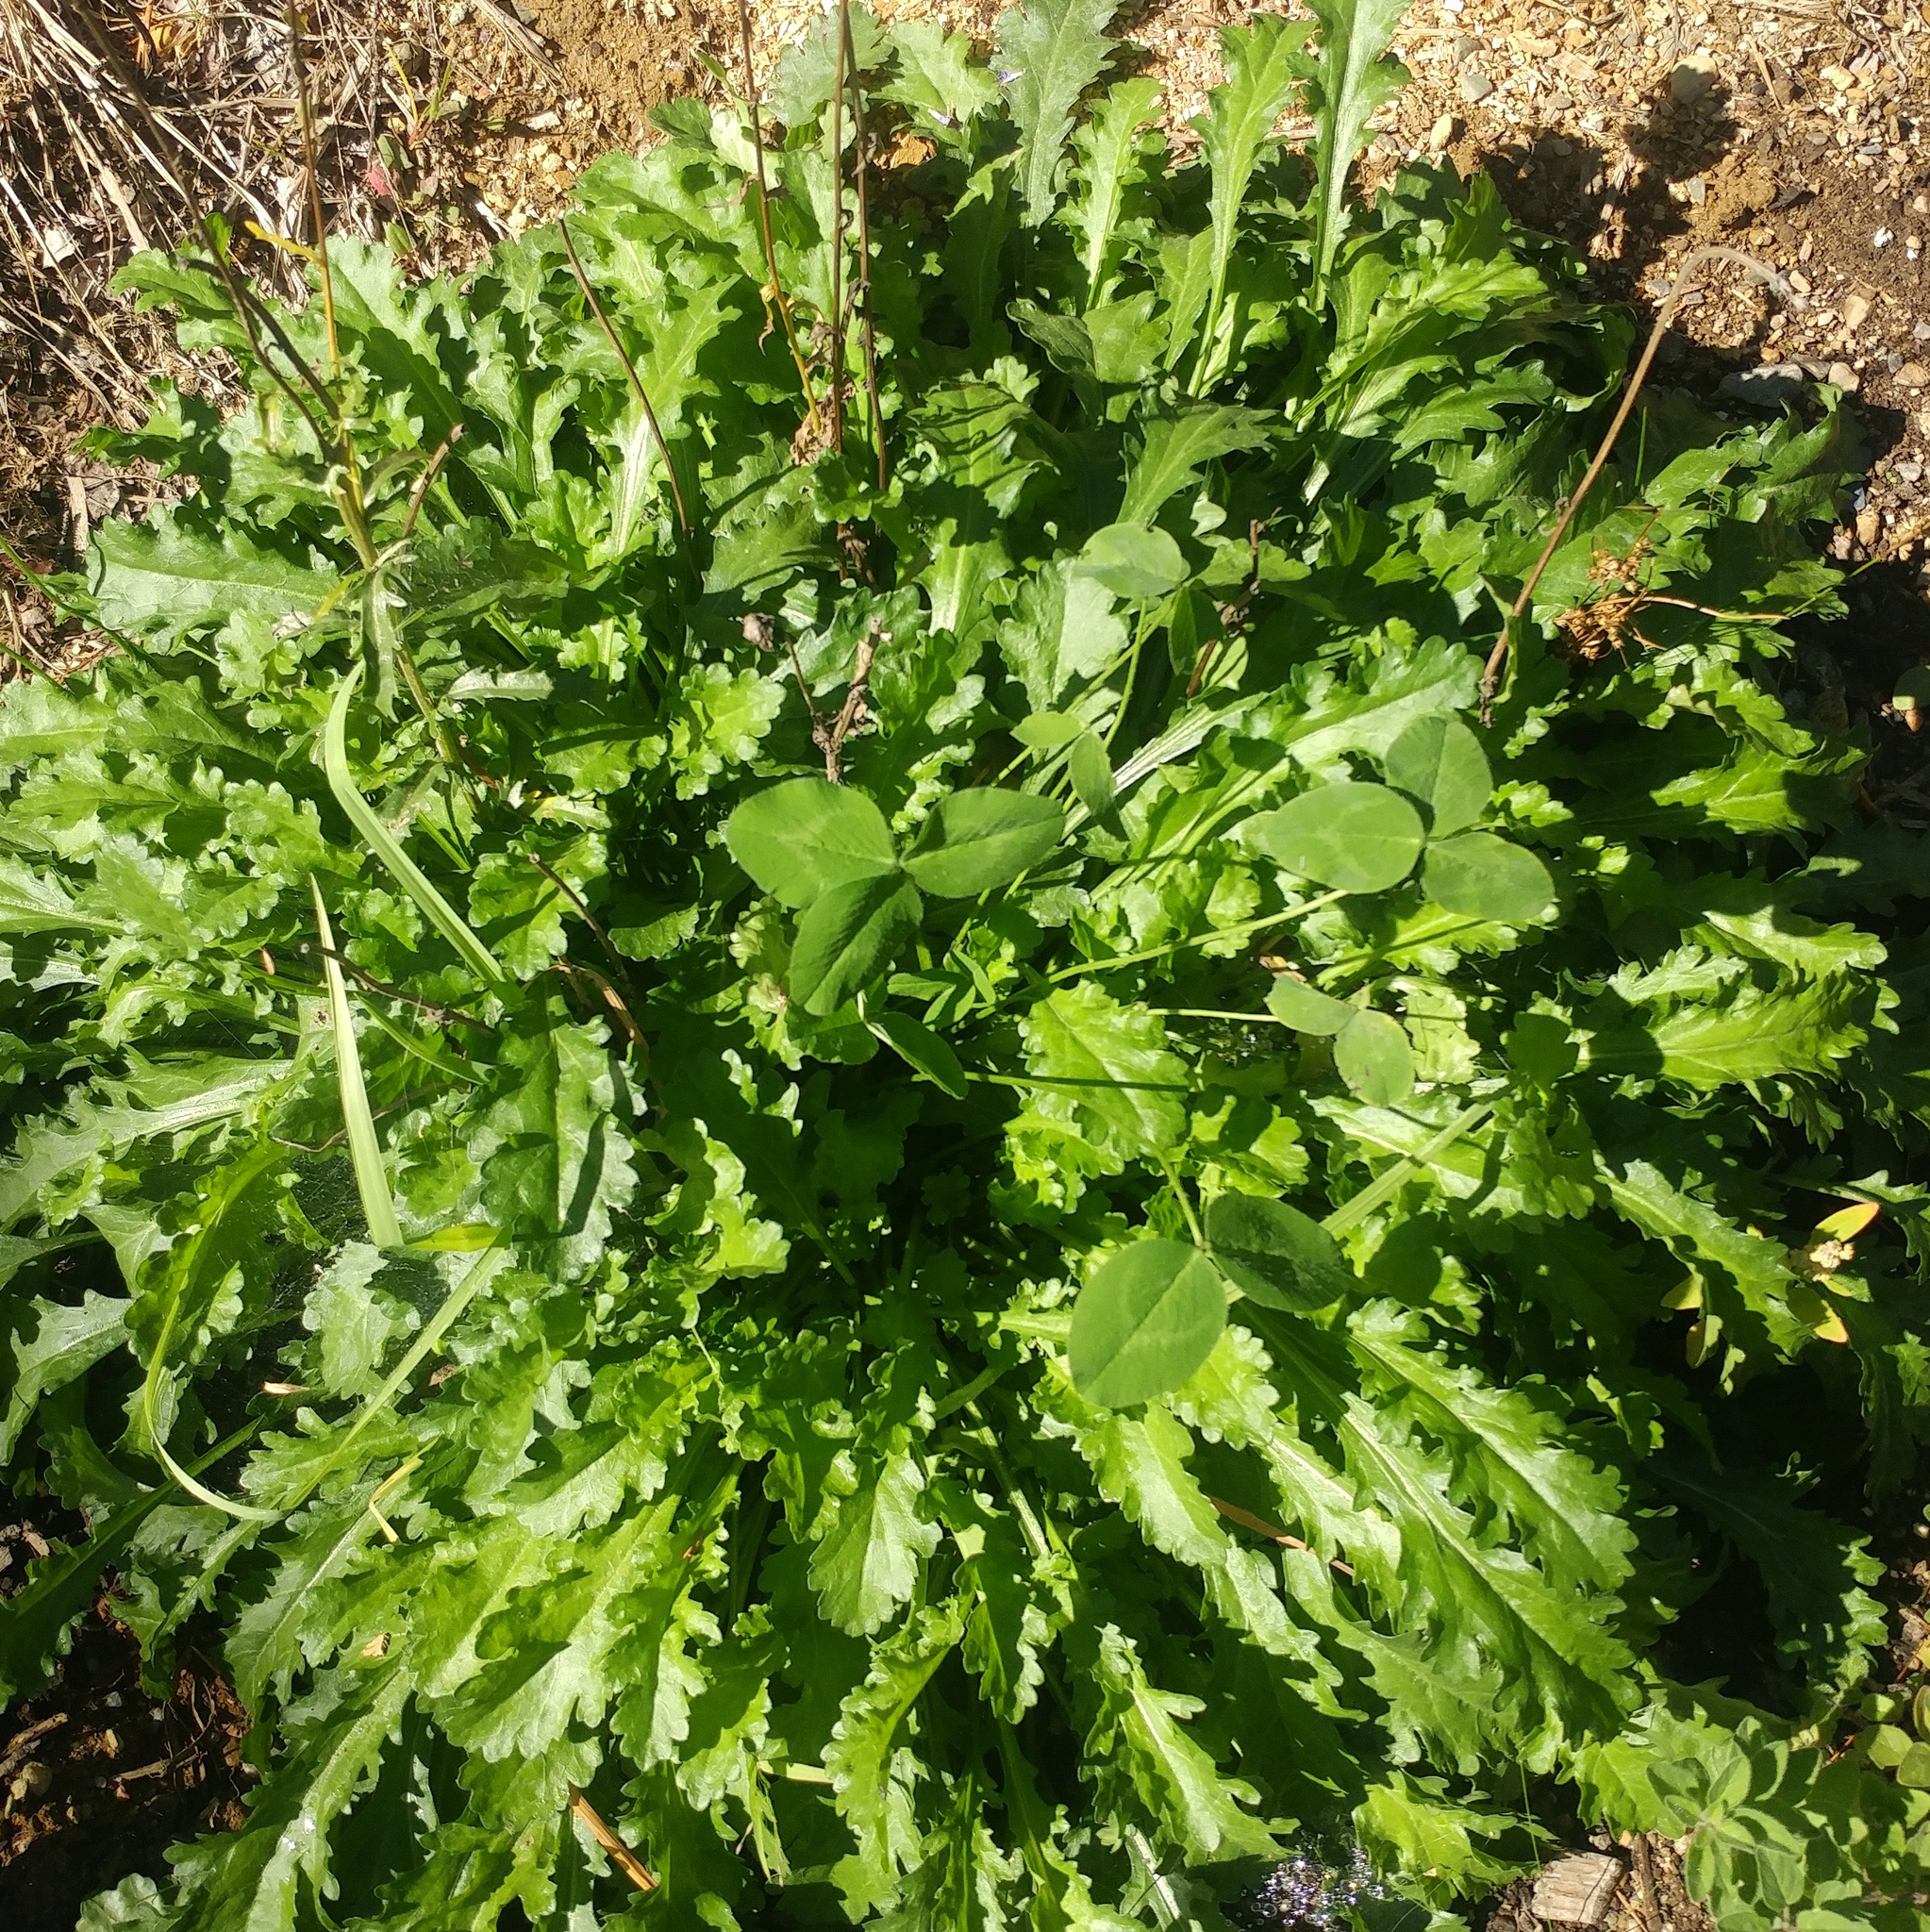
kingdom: Plantae
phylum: Tracheophyta
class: Magnoliopsida
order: Asterales
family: Asteraceae
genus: Leucanthemum
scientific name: Leucanthemum vulgare
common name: Oxeye daisy
